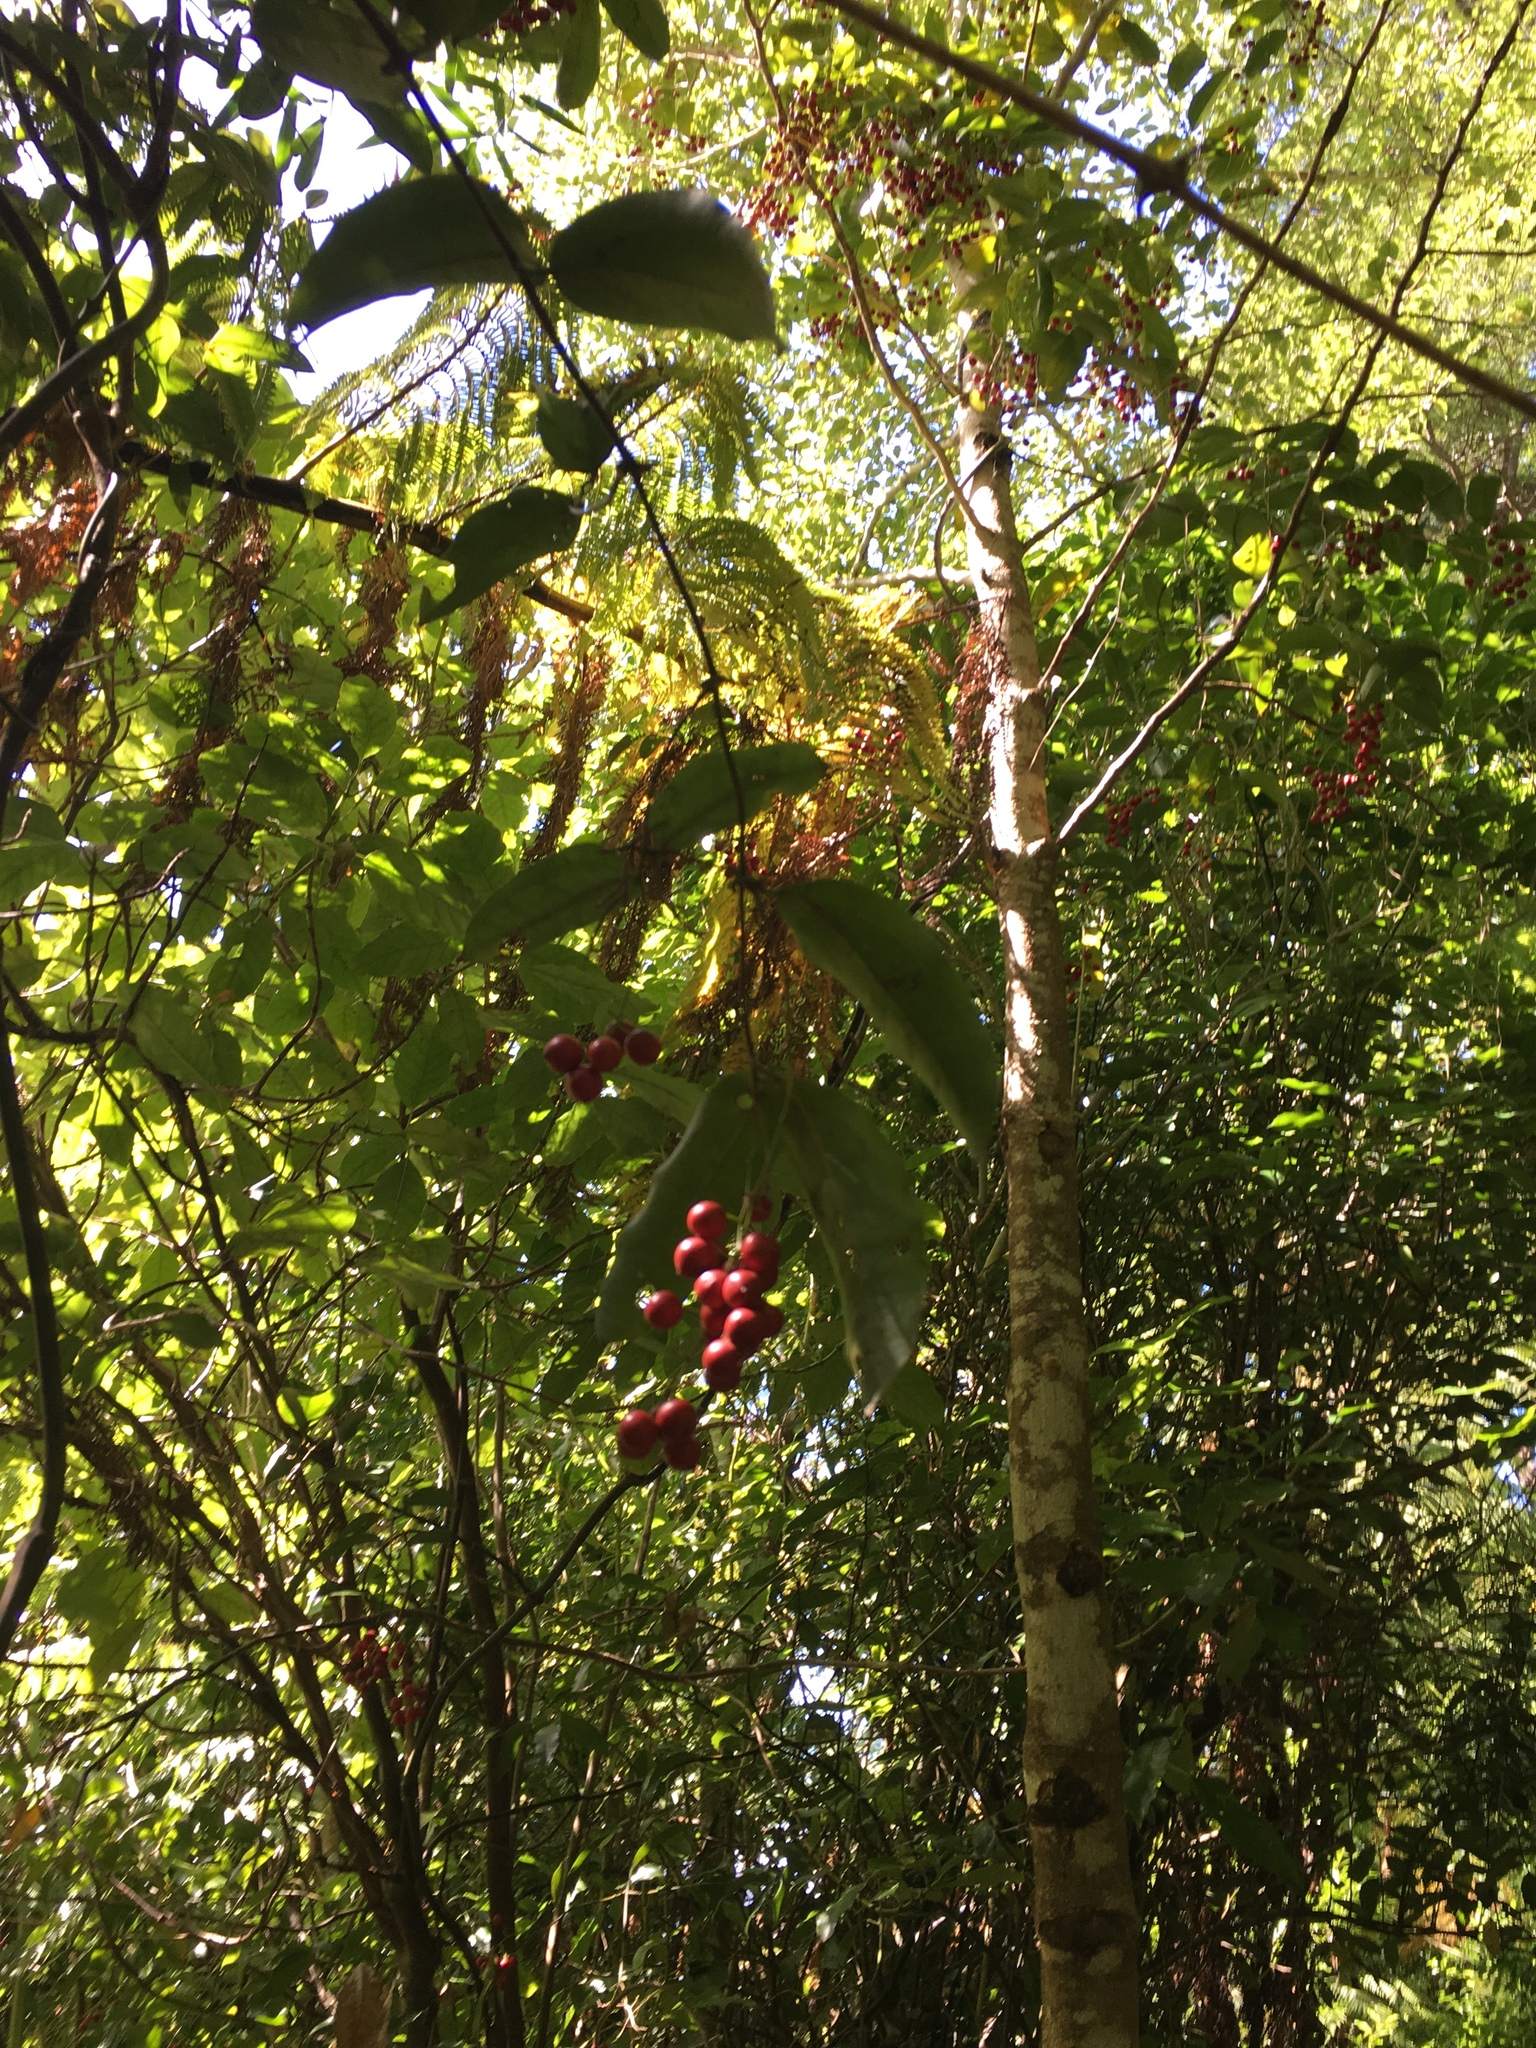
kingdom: Plantae
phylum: Tracheophyta
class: Liliopsida
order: Liliales
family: Ripogonaceae
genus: Ripogonum
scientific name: Ripogonum scandens
